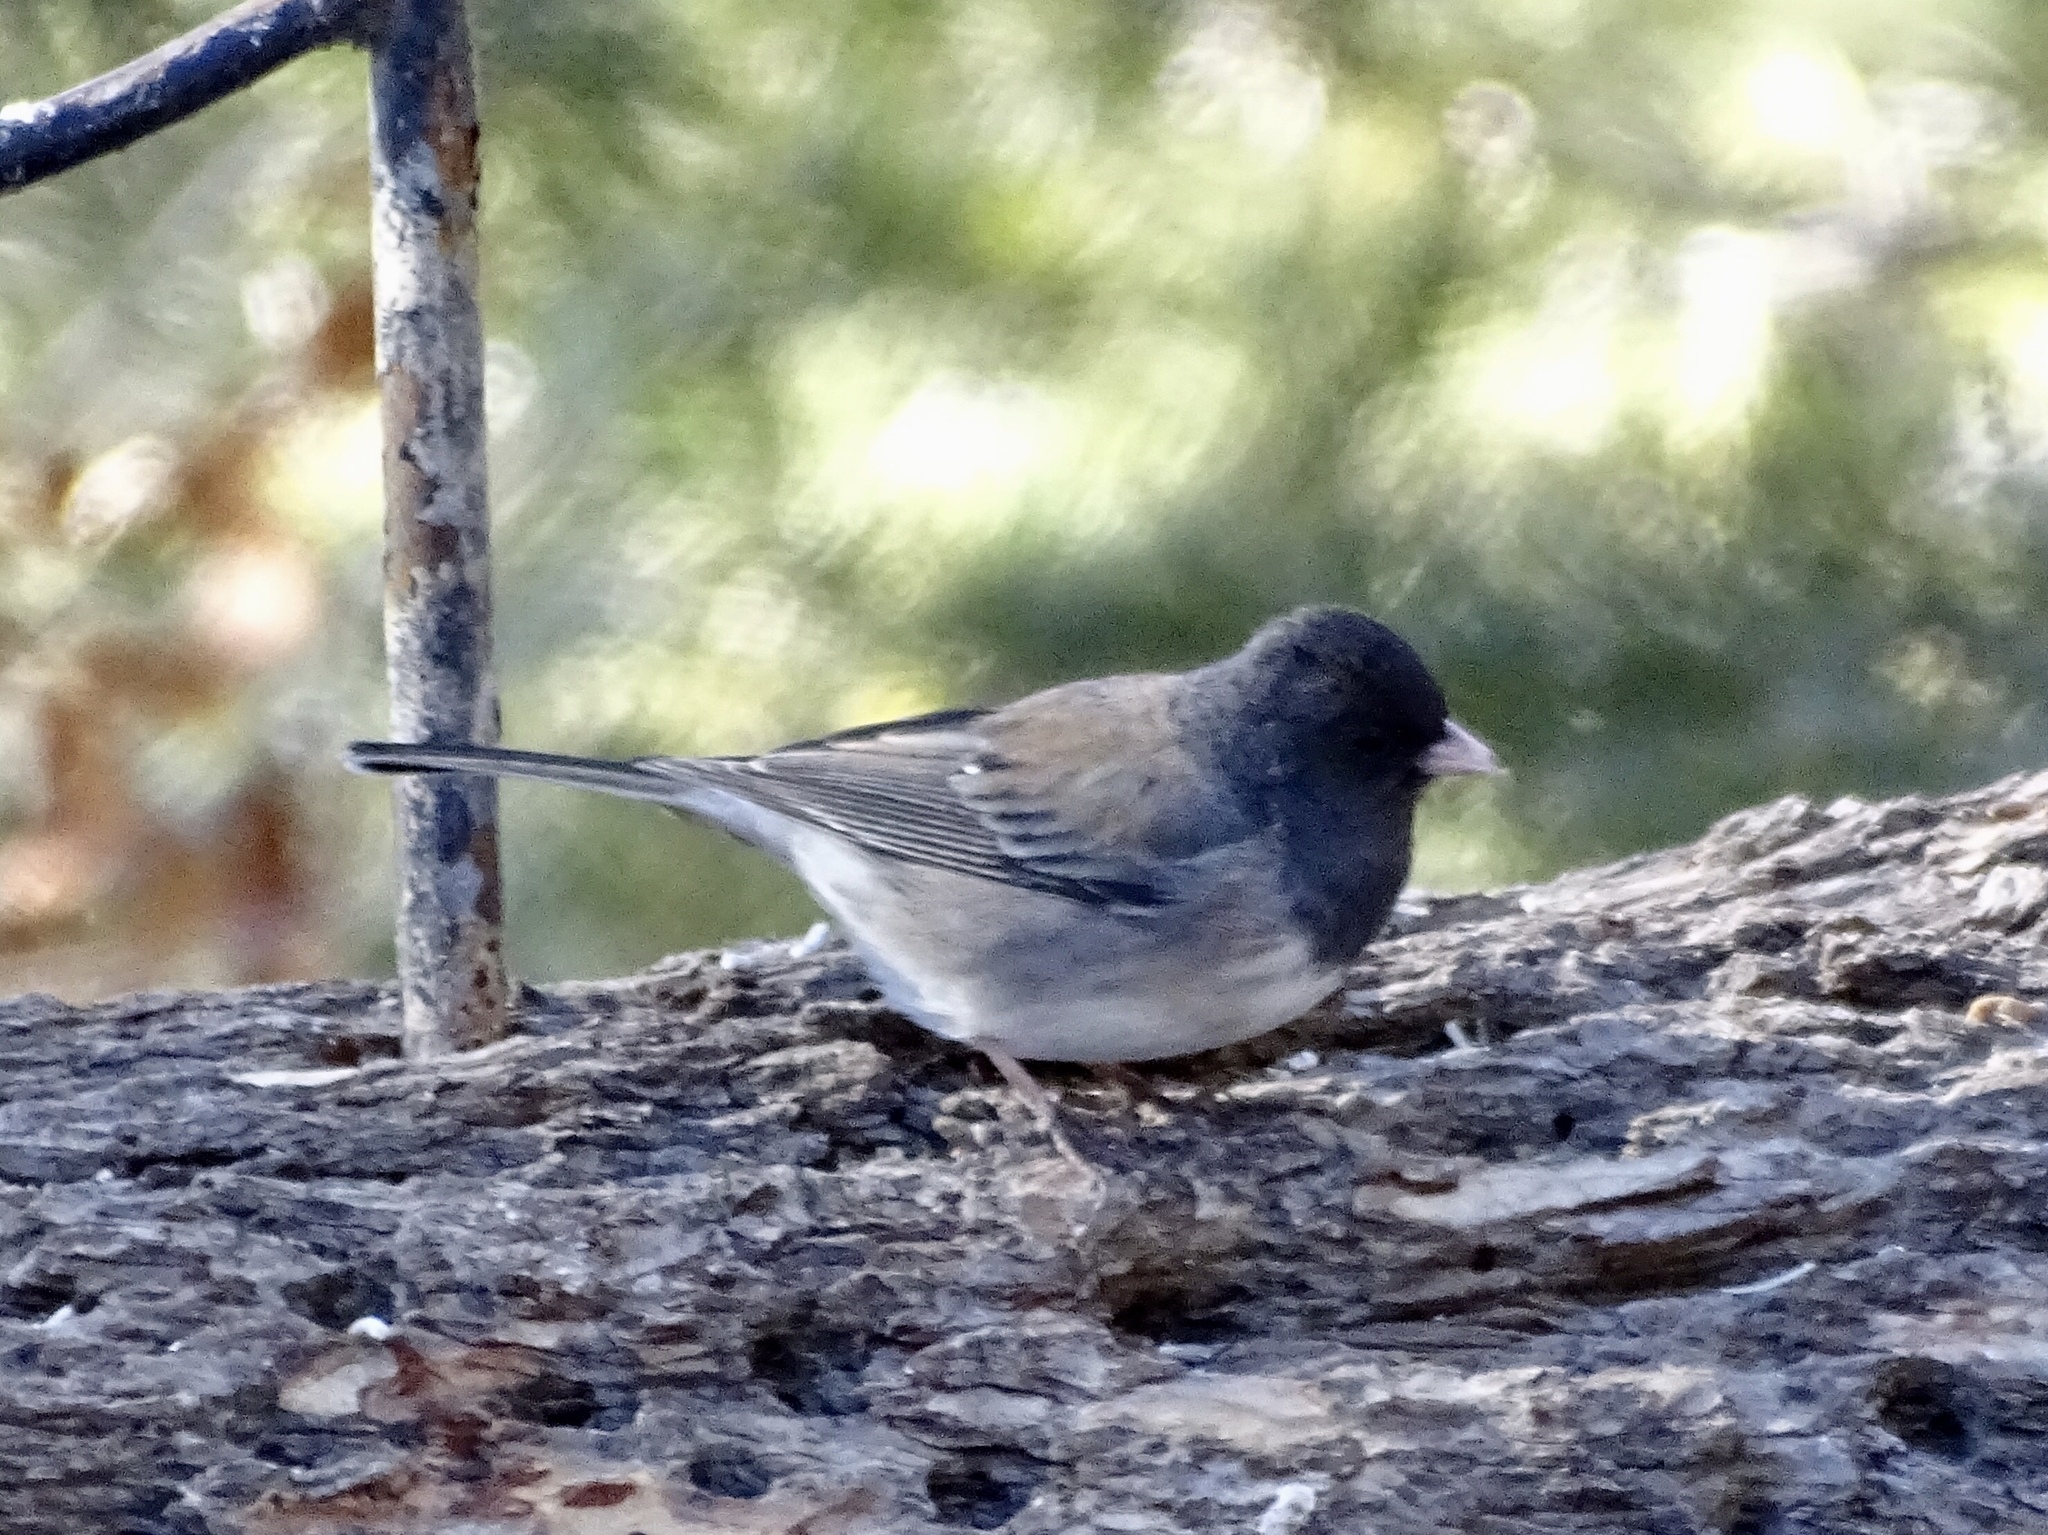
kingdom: Animalia
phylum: Chordata
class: Aves
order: Passeriformes
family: Passerellidae
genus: Junco
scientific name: Junco hyemalis
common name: Dark-eyed junco
